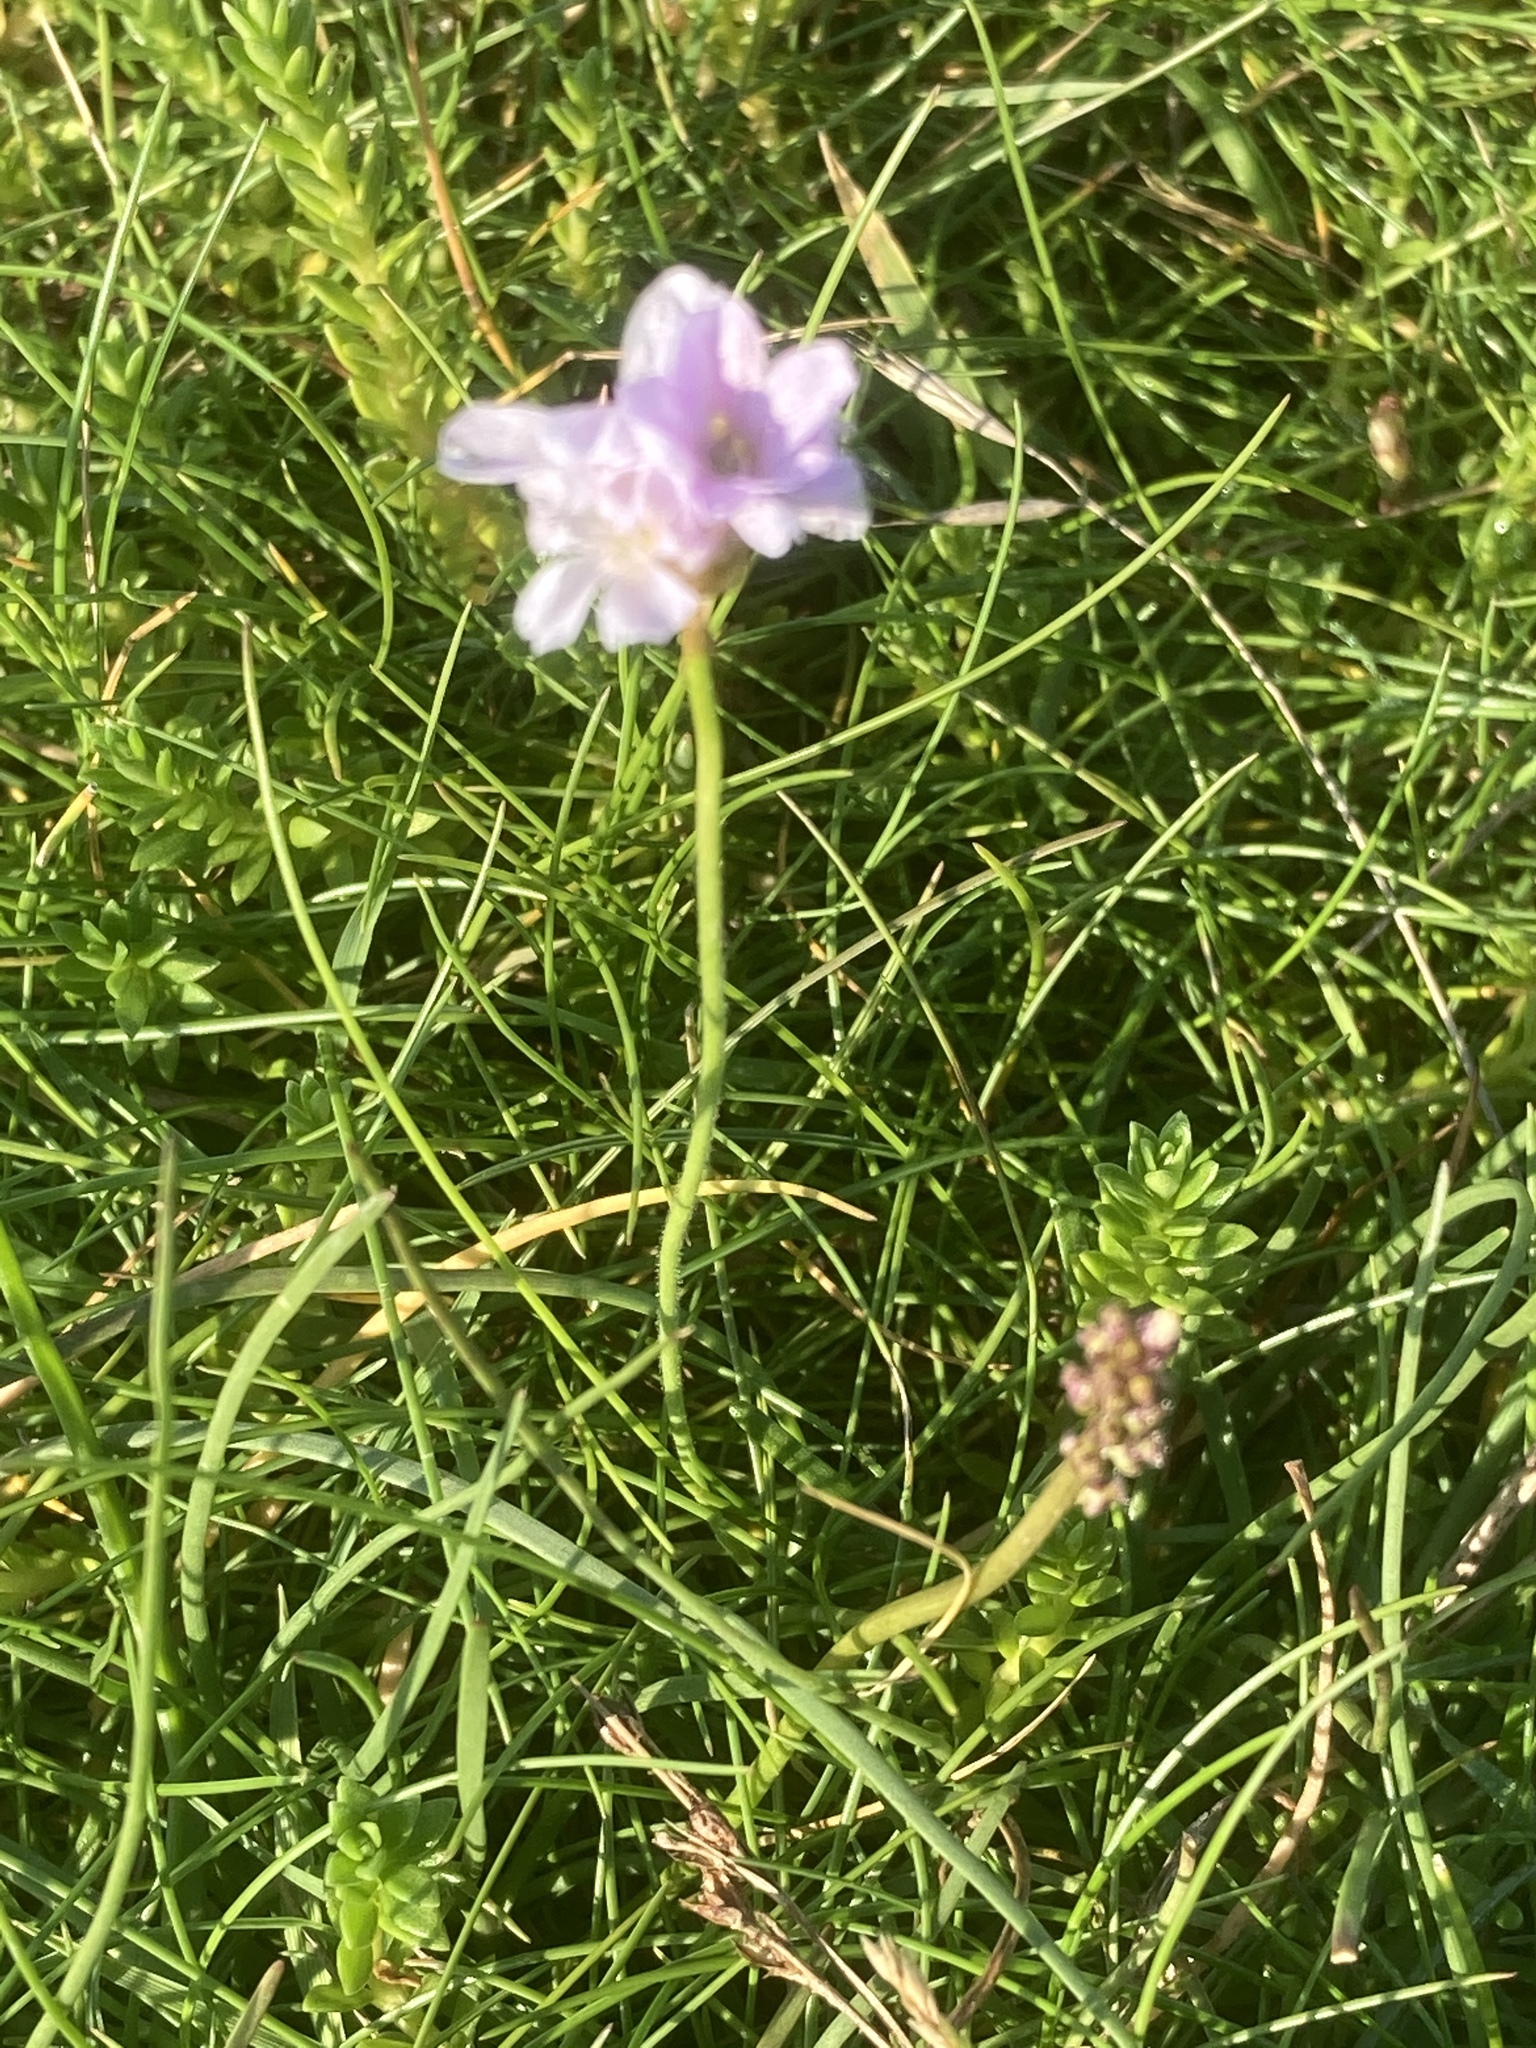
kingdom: Plantae
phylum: Tracheophyta
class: Magnoliopsida
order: Caryophyllales
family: Plumbaginaceae
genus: Armeria
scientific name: Armeria maritima
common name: Thrift
